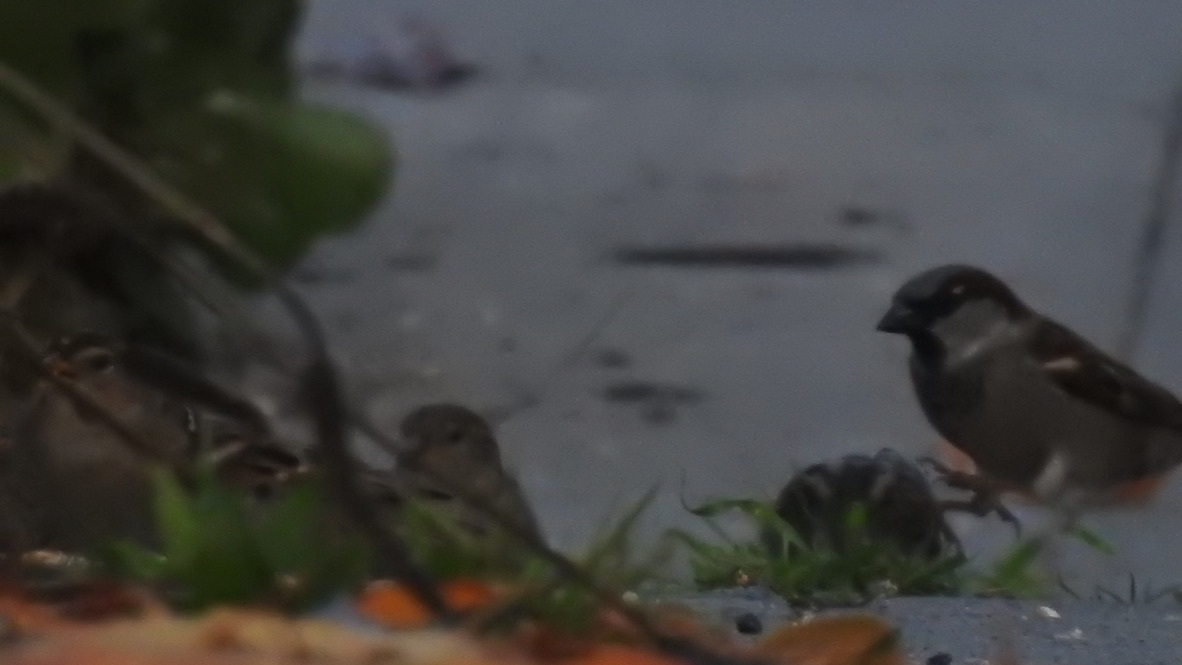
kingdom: Animalia
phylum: Chordata
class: Aves
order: Passeriformes
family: Passeridae
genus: Passer
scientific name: Passer domesticus
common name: House sparrow
